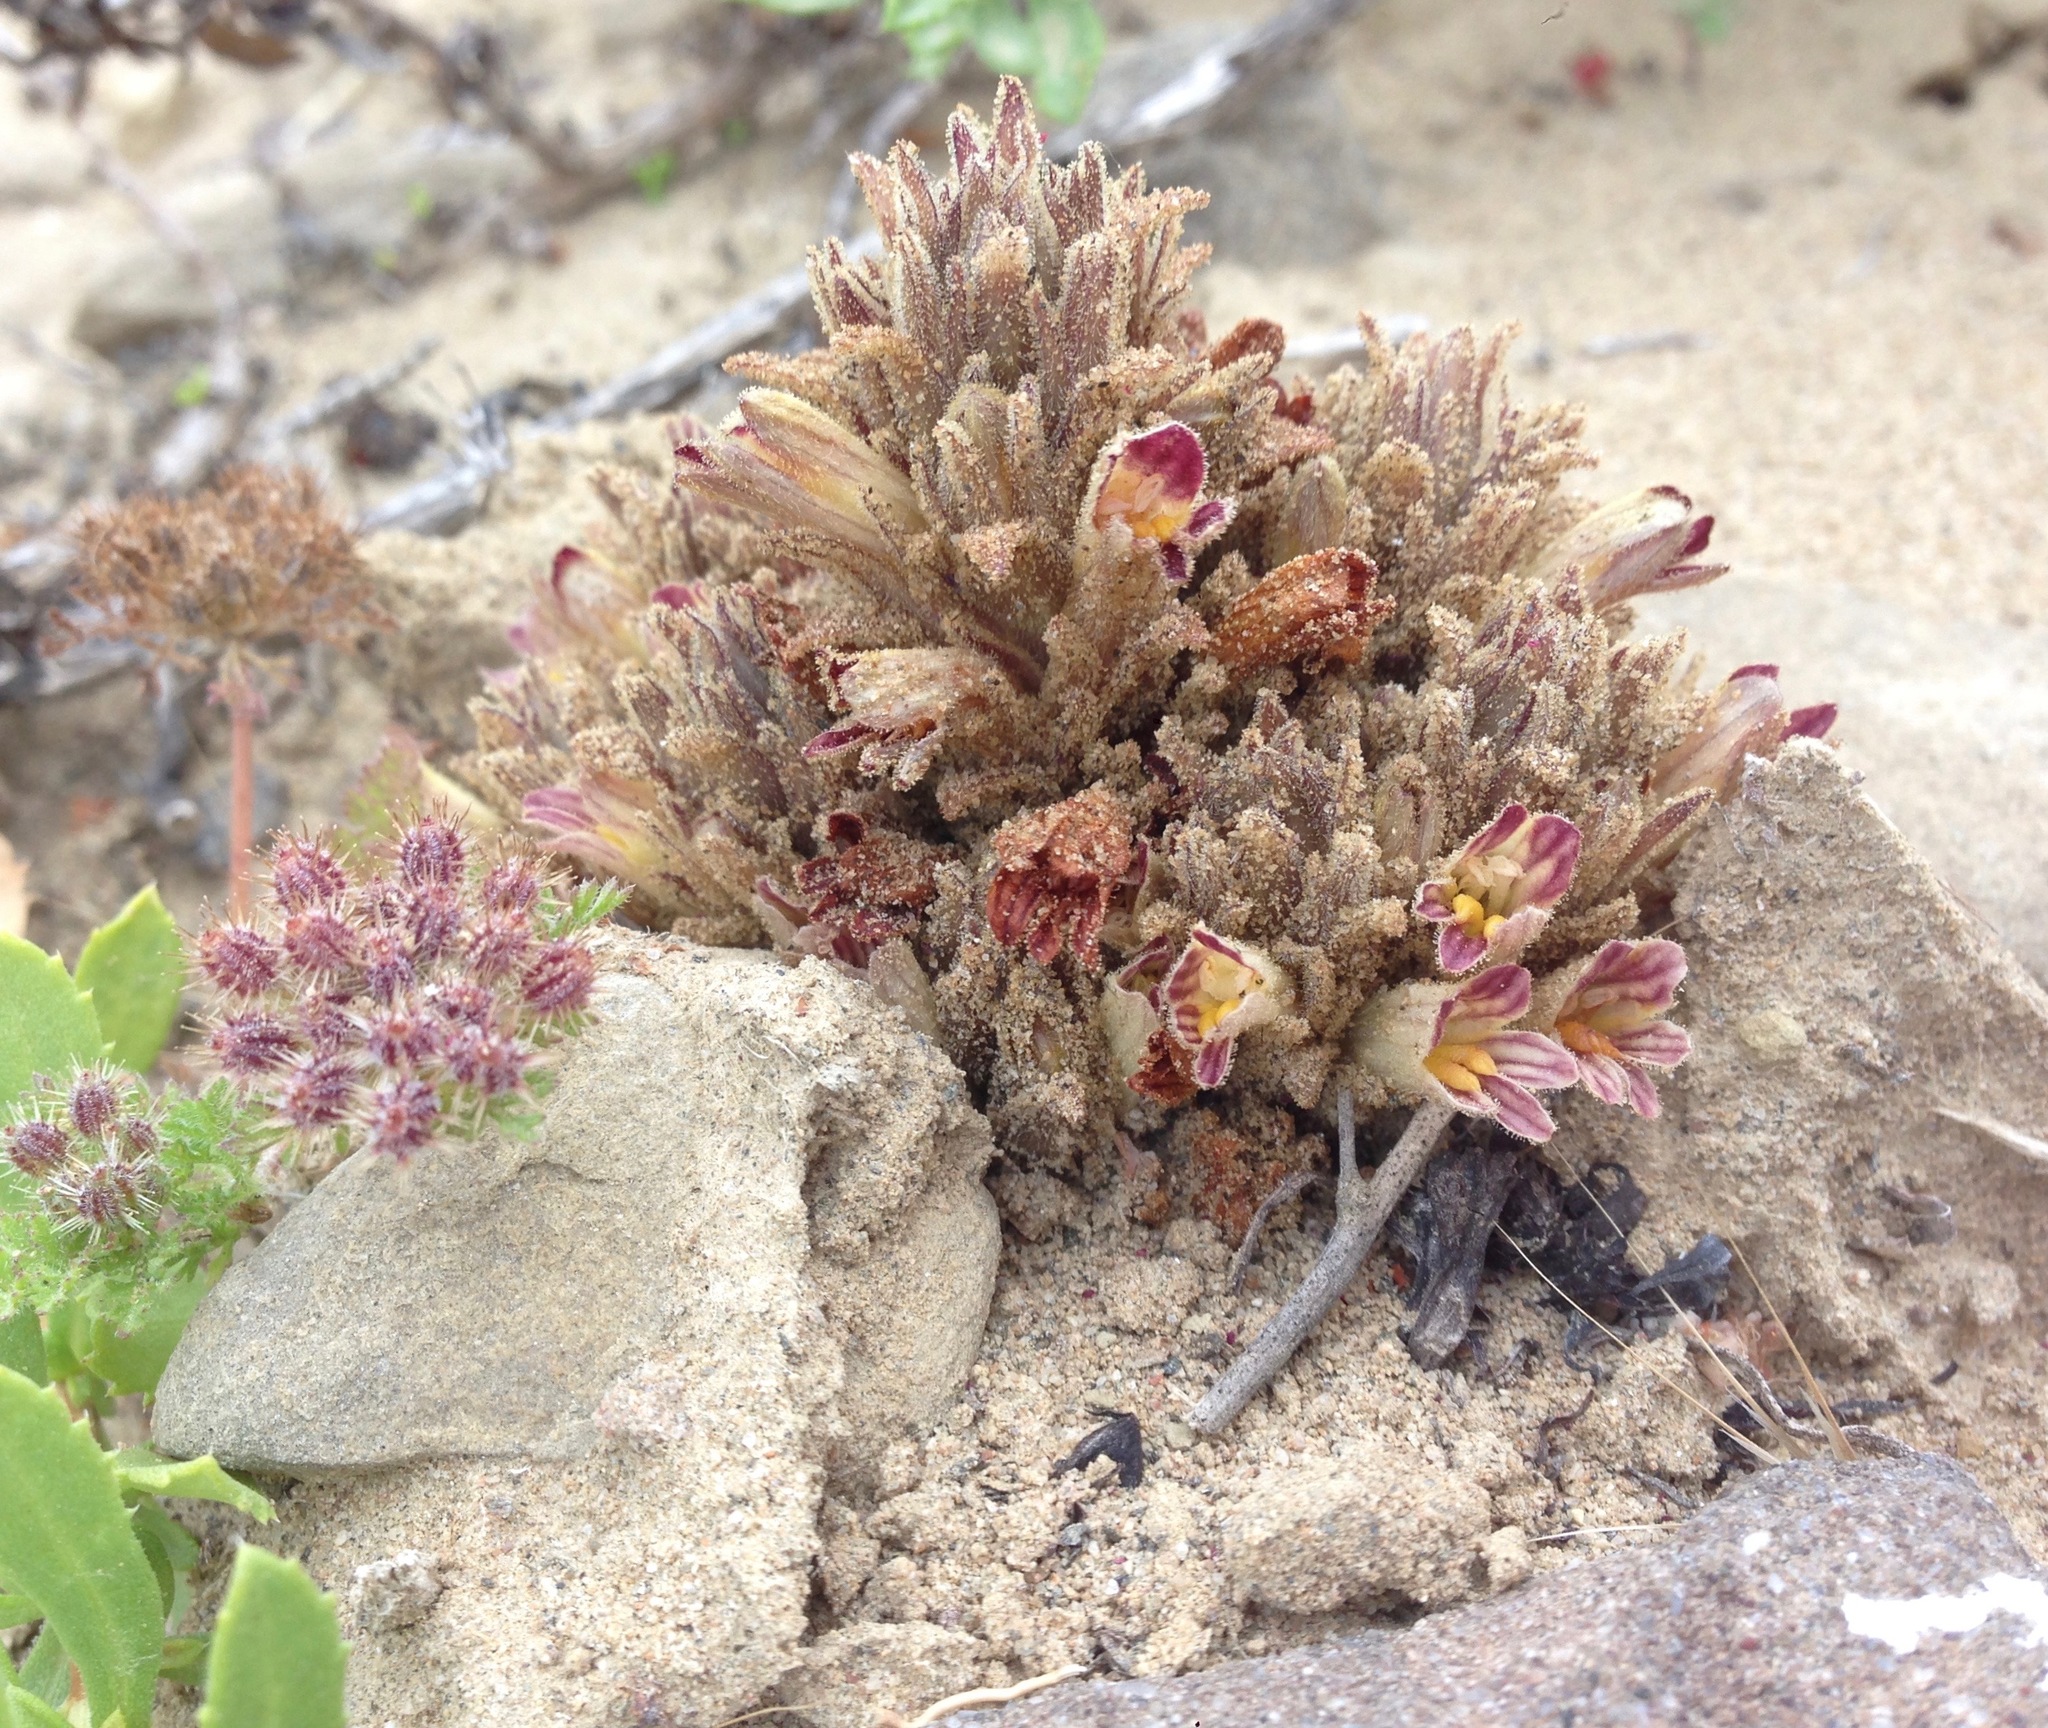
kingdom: Plantae
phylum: Tracheophyta
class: Magnoliopsida
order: Lamiales
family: Orobanchaceae
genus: Aphyllon
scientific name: Aphyllon parishii
